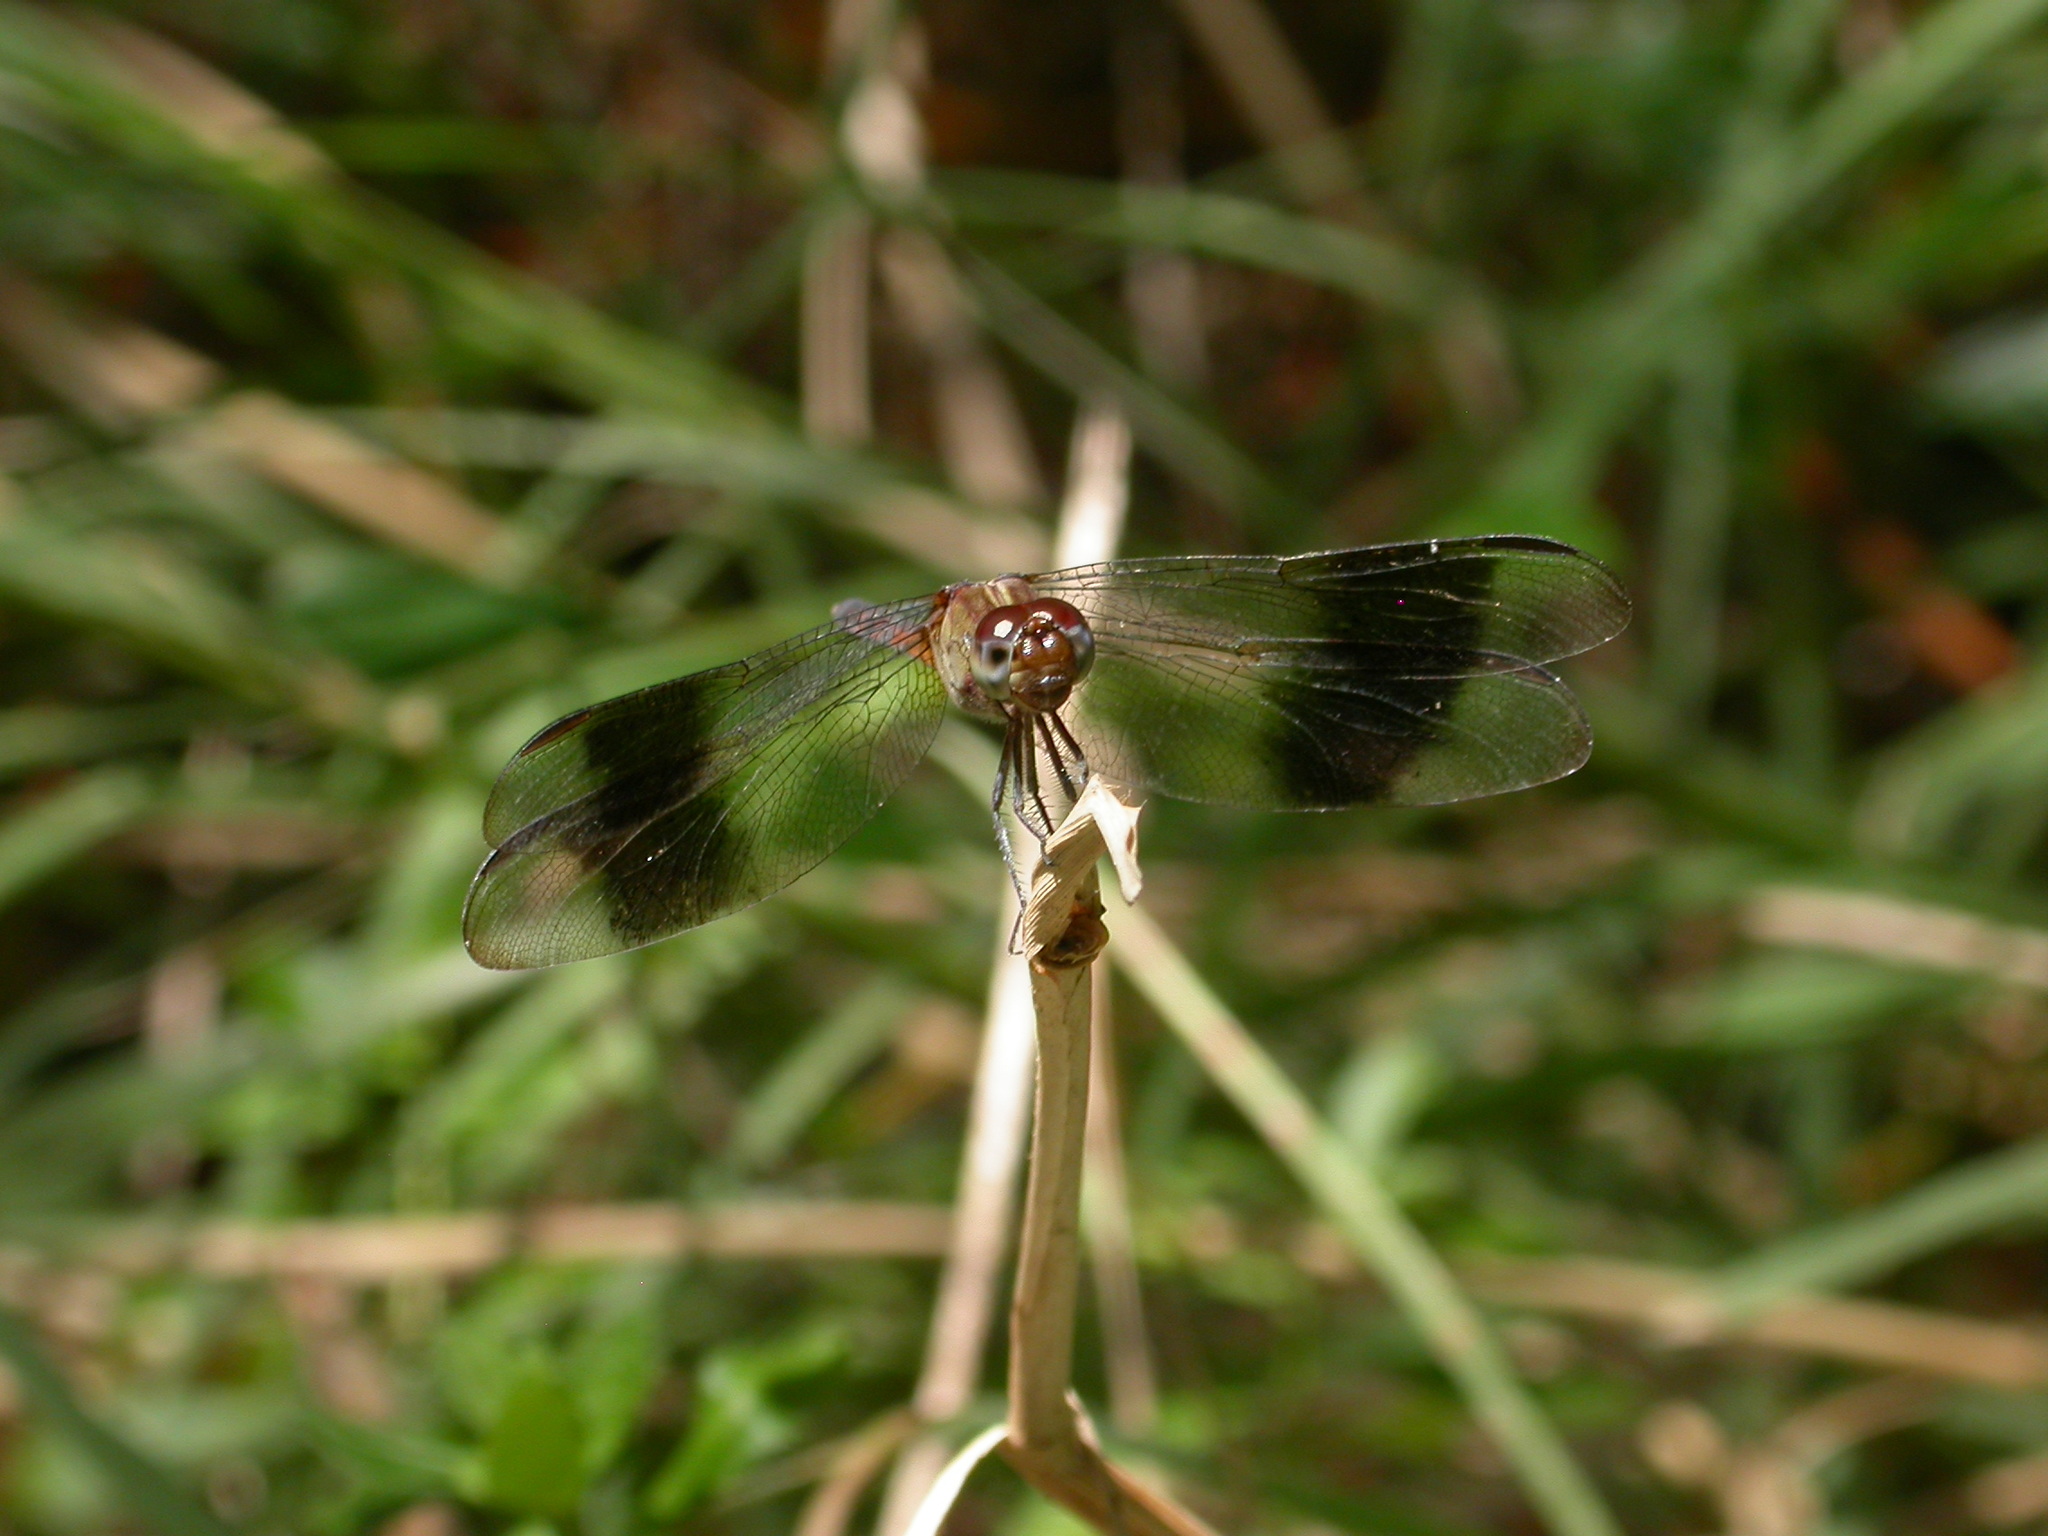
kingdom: Animalia
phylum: Arthropoda
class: Insecta
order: Odonata
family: Libellulidae
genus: Erythrodiplax
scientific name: Erythrodiplax umbrata
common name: Band-winged dragonlet
